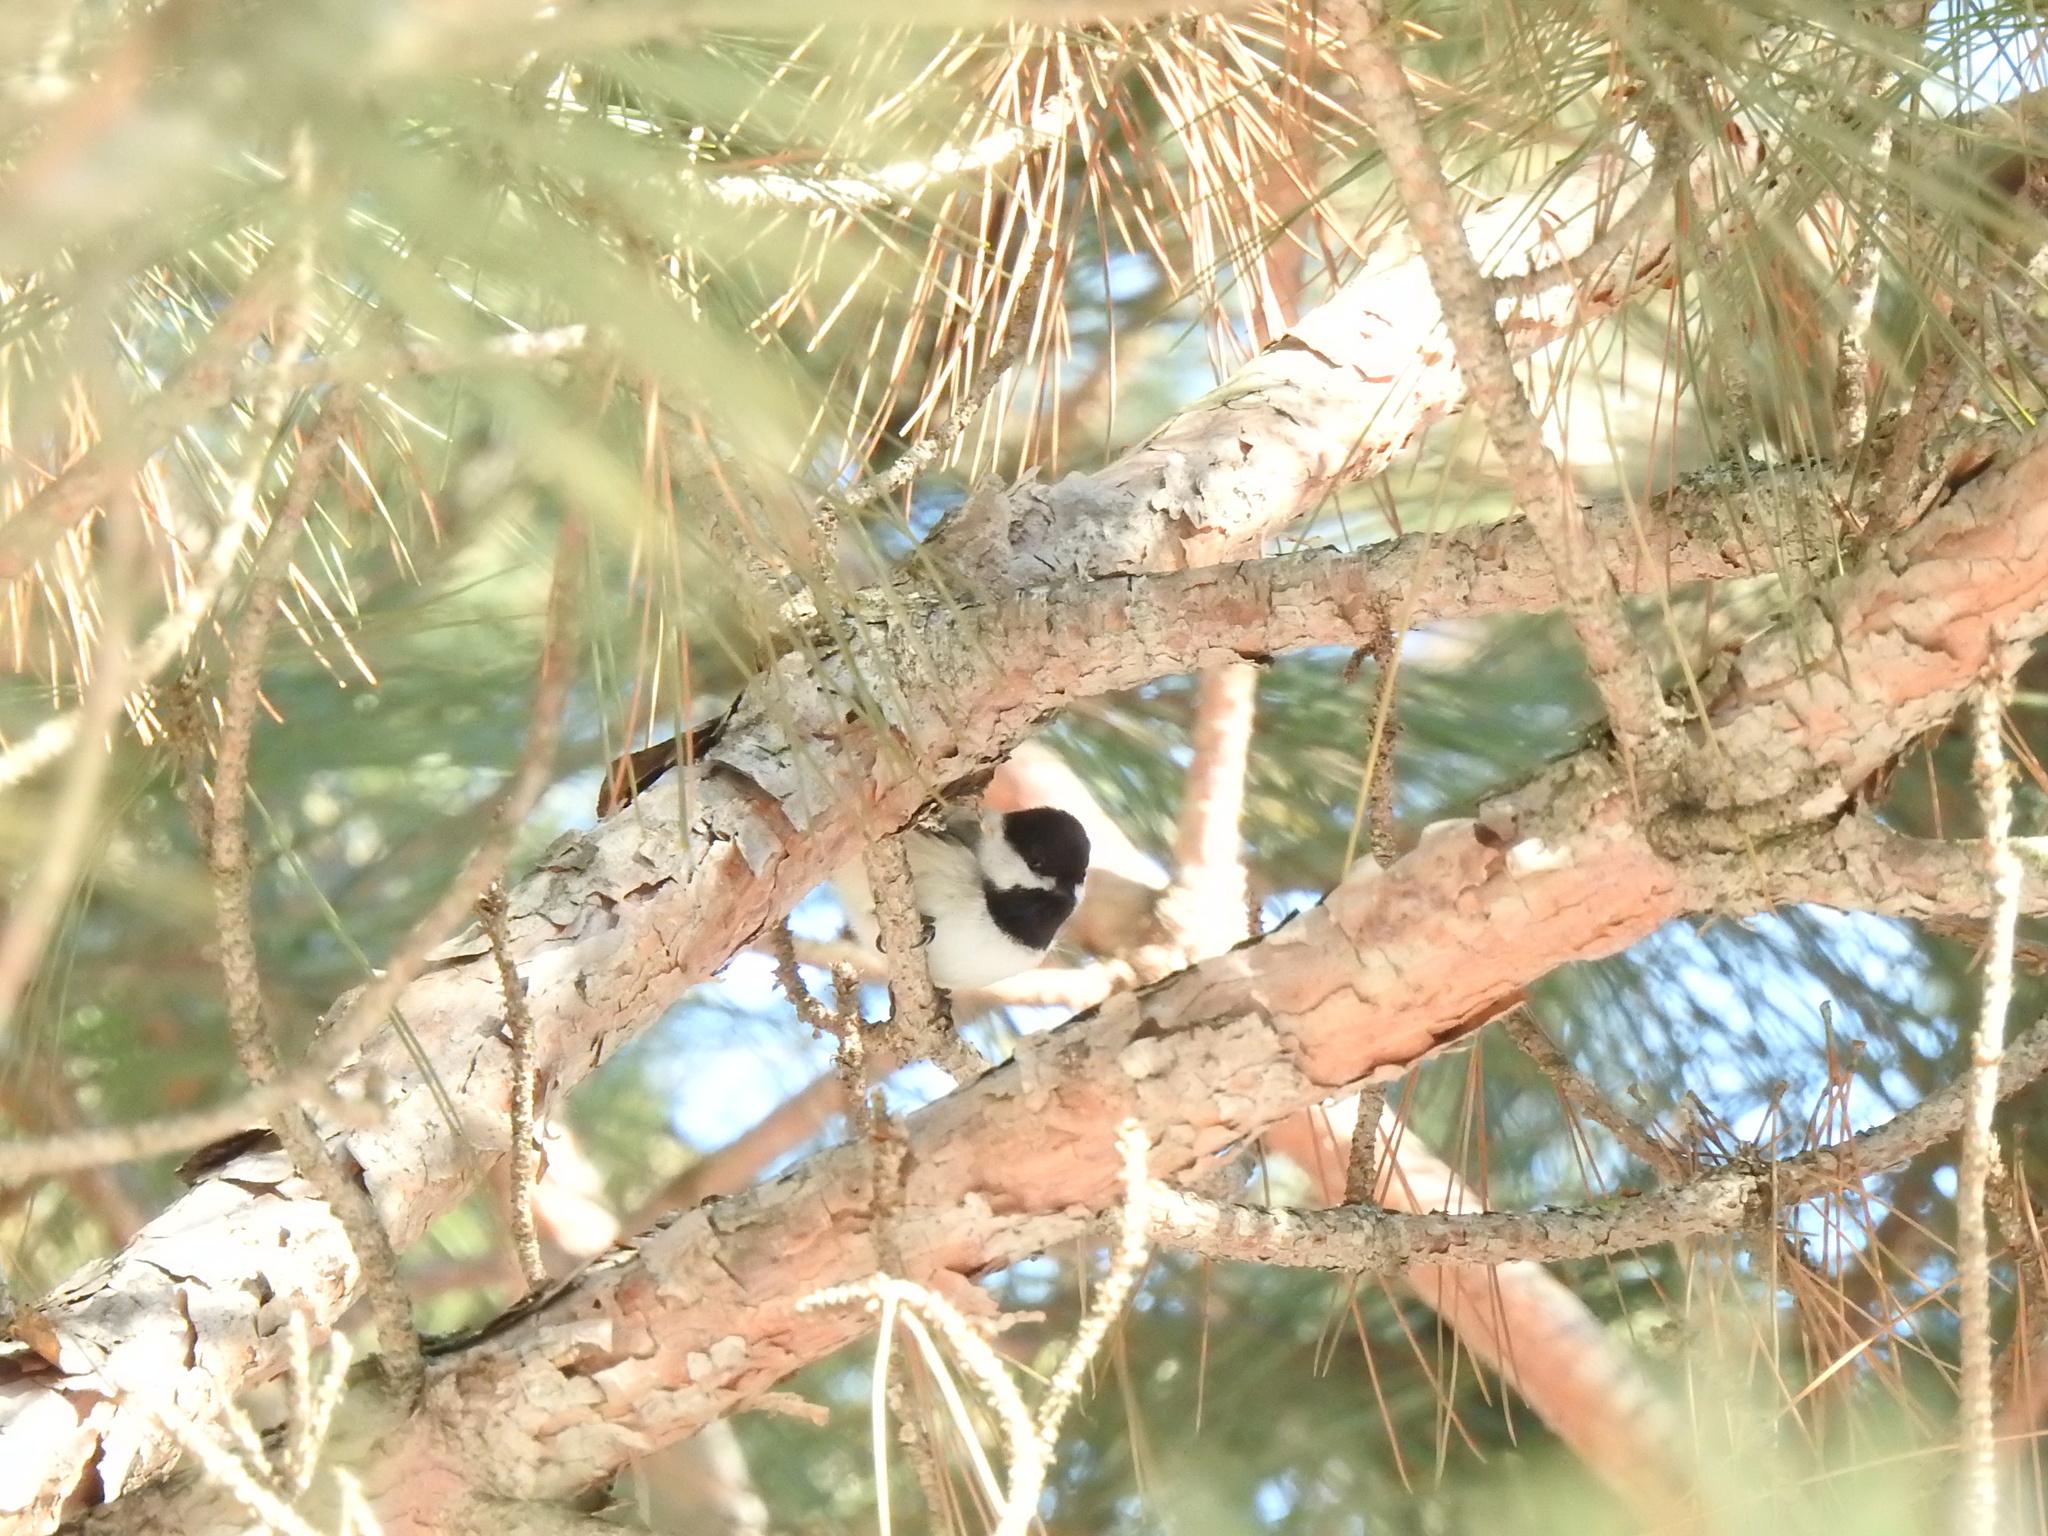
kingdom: Animalia
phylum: Chordata
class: Aves
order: Passeriformes
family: Paridae
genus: Poecile
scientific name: Poecile atricapillus
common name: Black-capped chickadee
